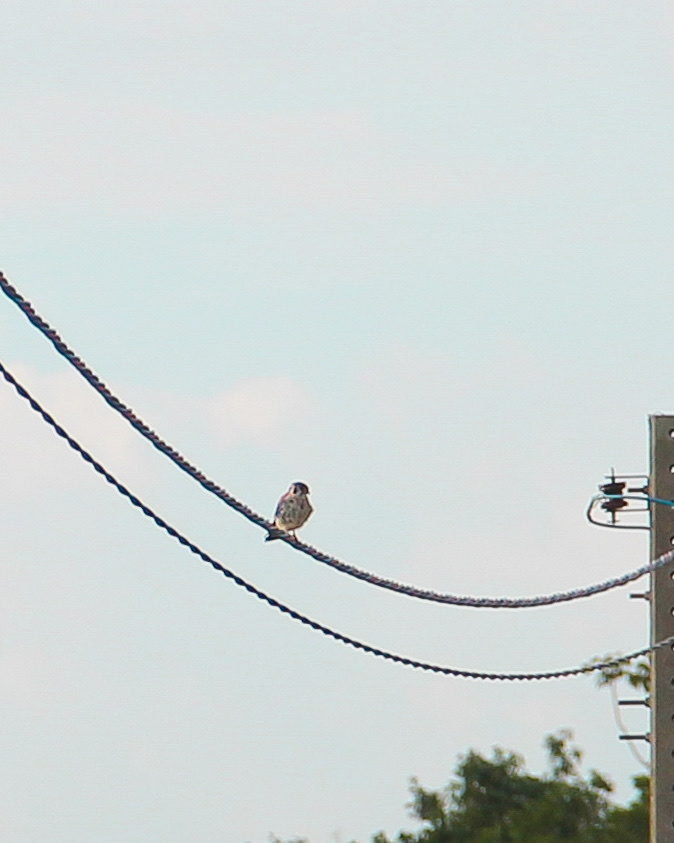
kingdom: Animalia
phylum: Chordata
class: Aves
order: Falconiformes
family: Falconidae
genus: Falco
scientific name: Falco sparverius
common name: American kestrel
